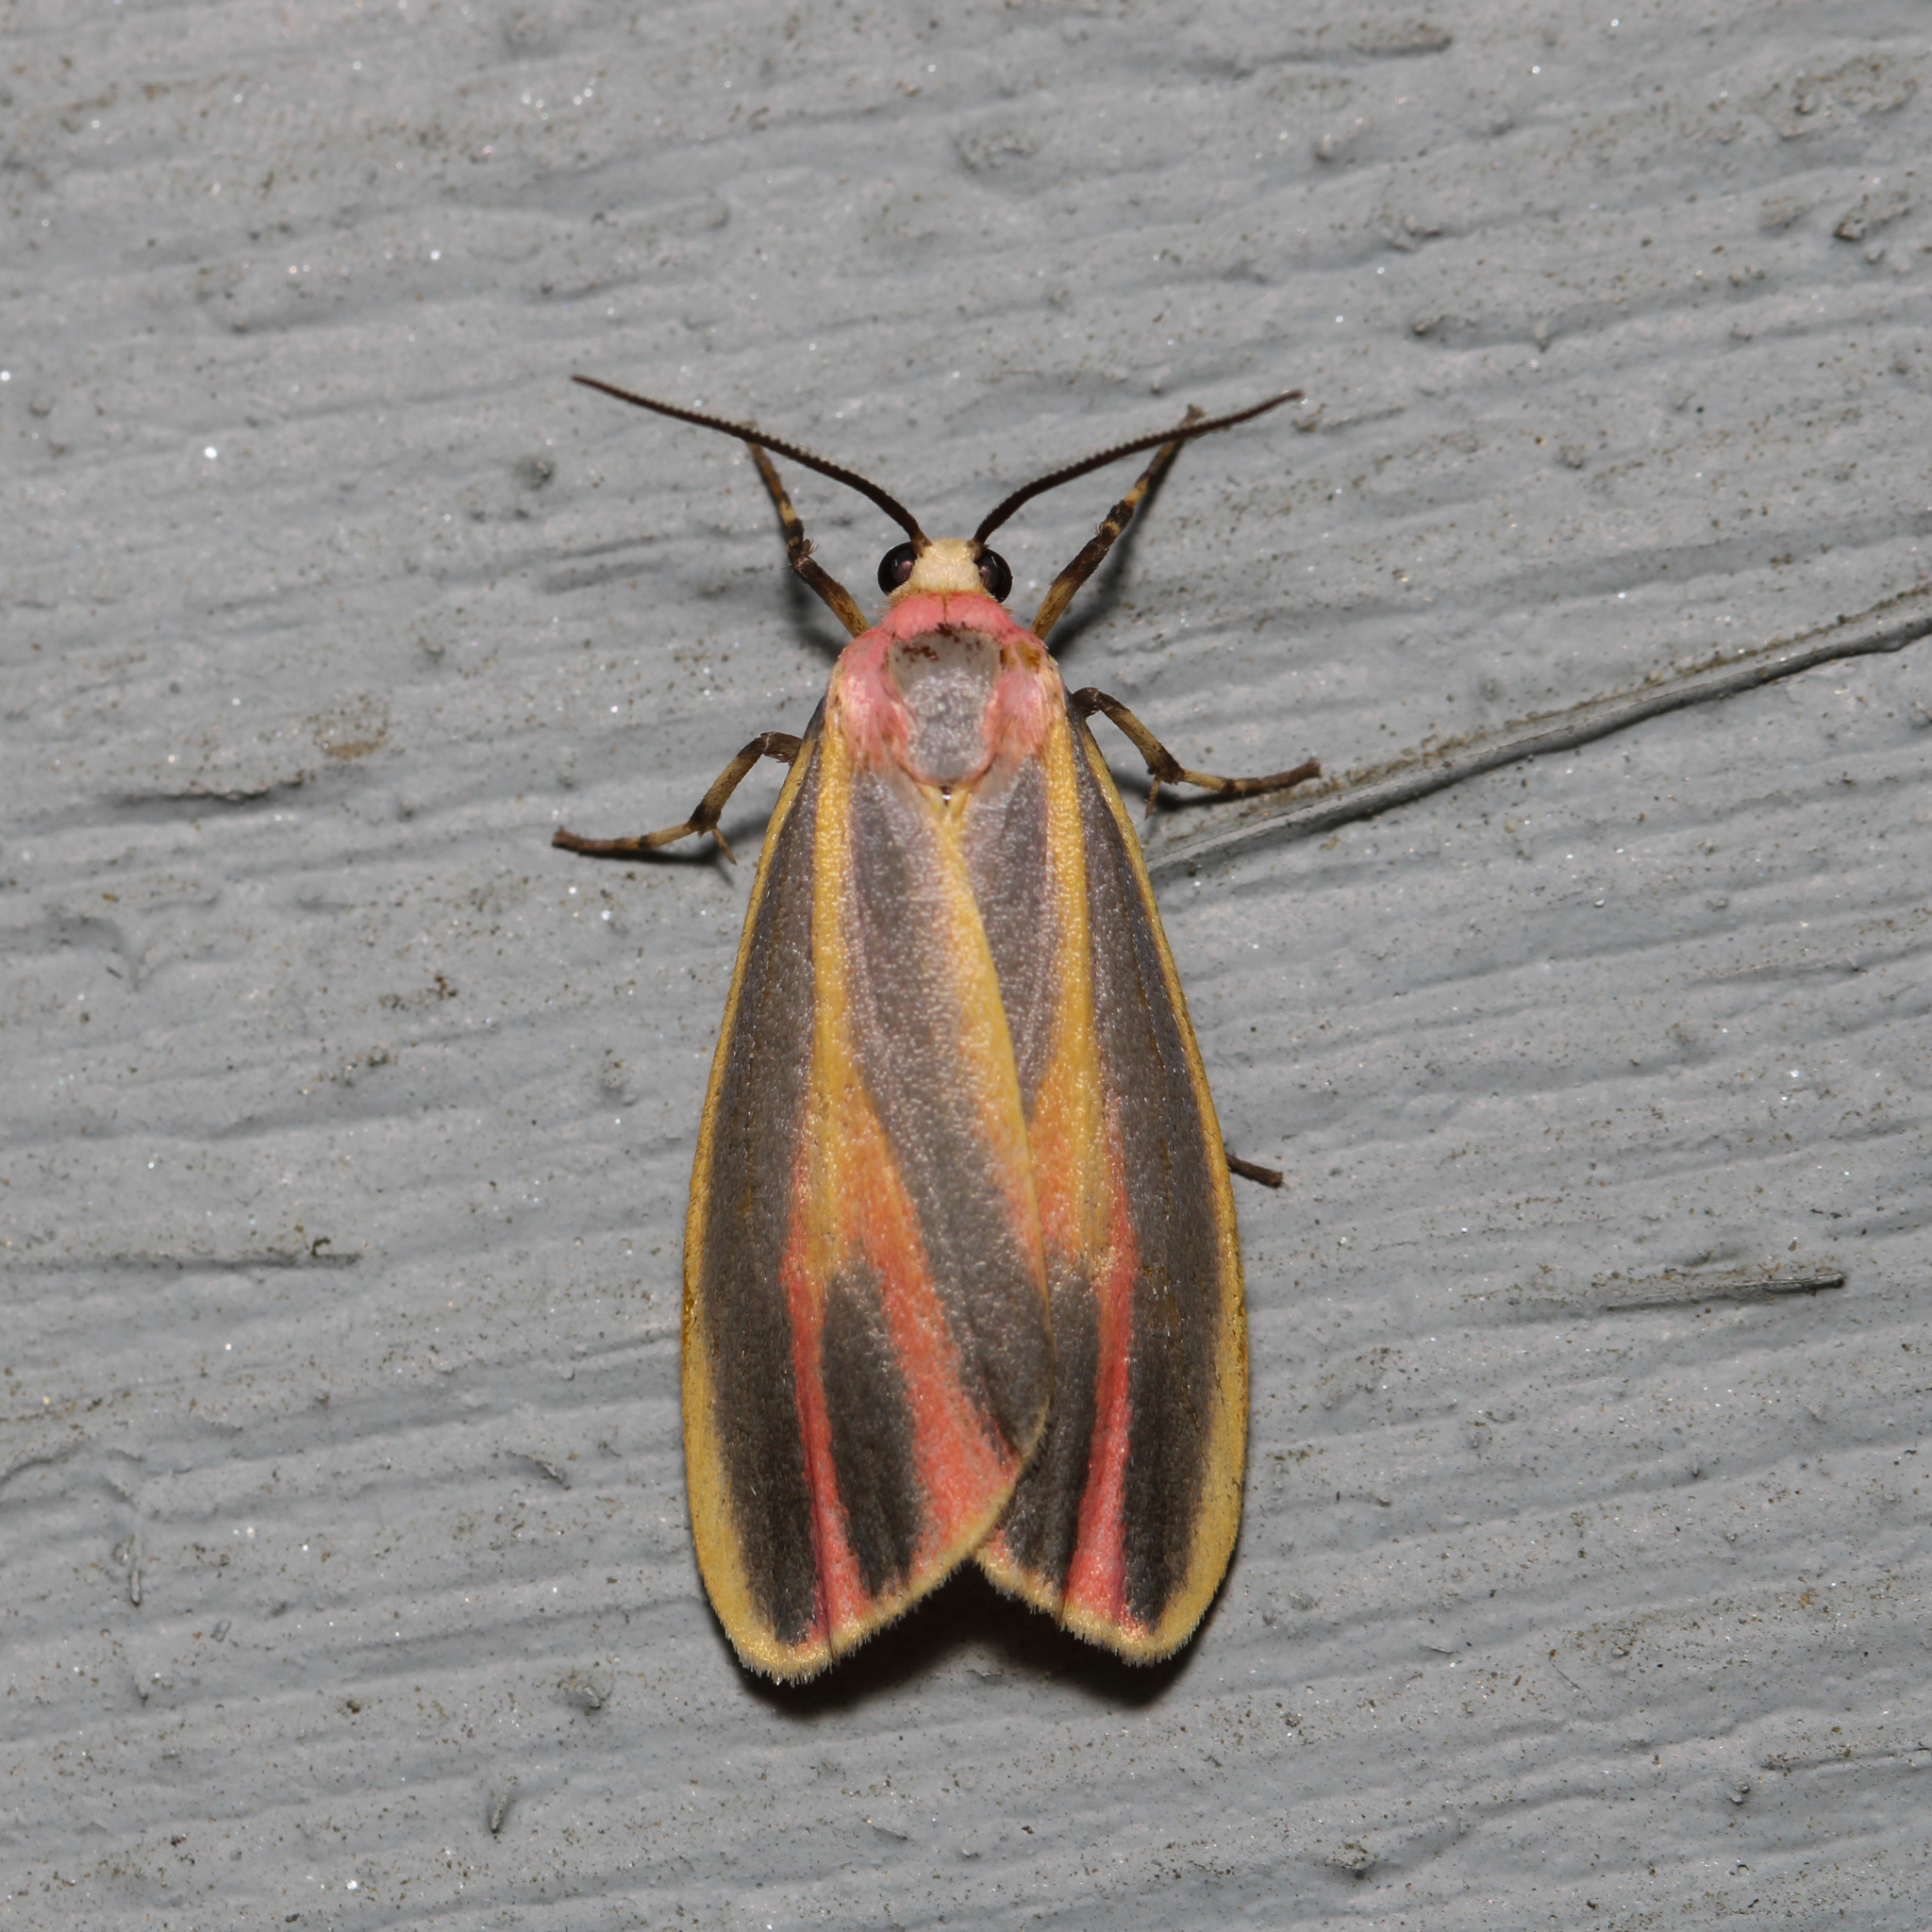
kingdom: Animalia
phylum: Arthropoda
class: Insecta
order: Lepidoptera
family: Erebidae
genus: Hypoprepia
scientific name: Hypoprepia fucosa
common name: Painted lichen moth
